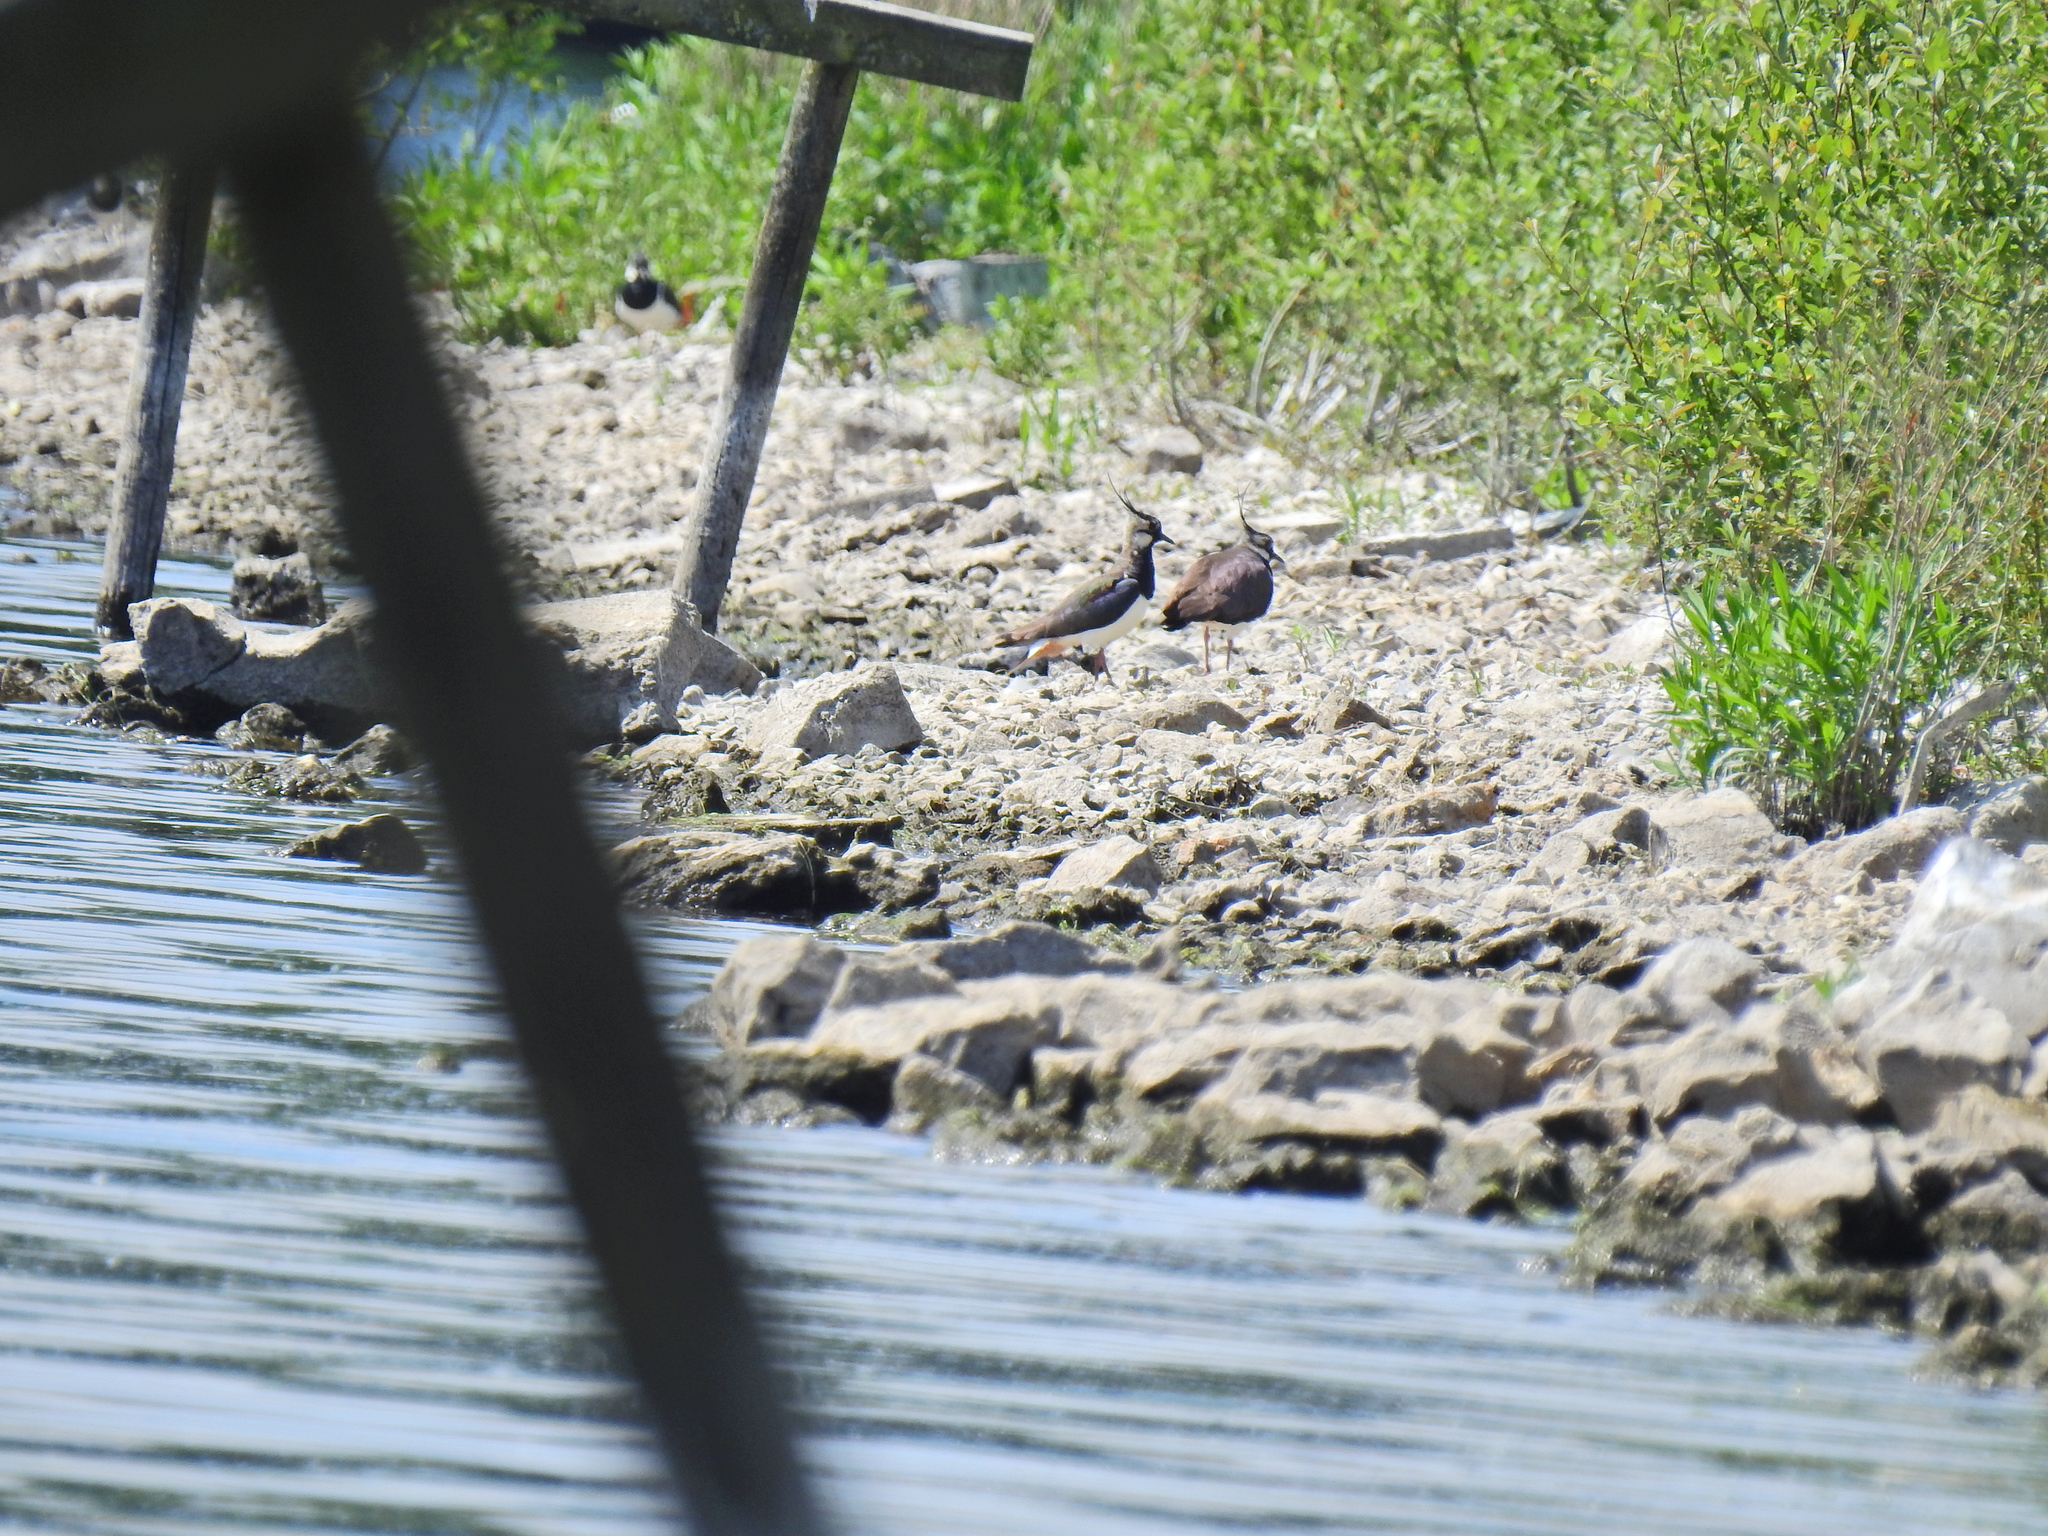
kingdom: Animalia
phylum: Chordata
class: Aves
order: Charadriiformes
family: Charadriidae
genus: Vanellus
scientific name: Vanellus vanellus
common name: Northern lapwing
